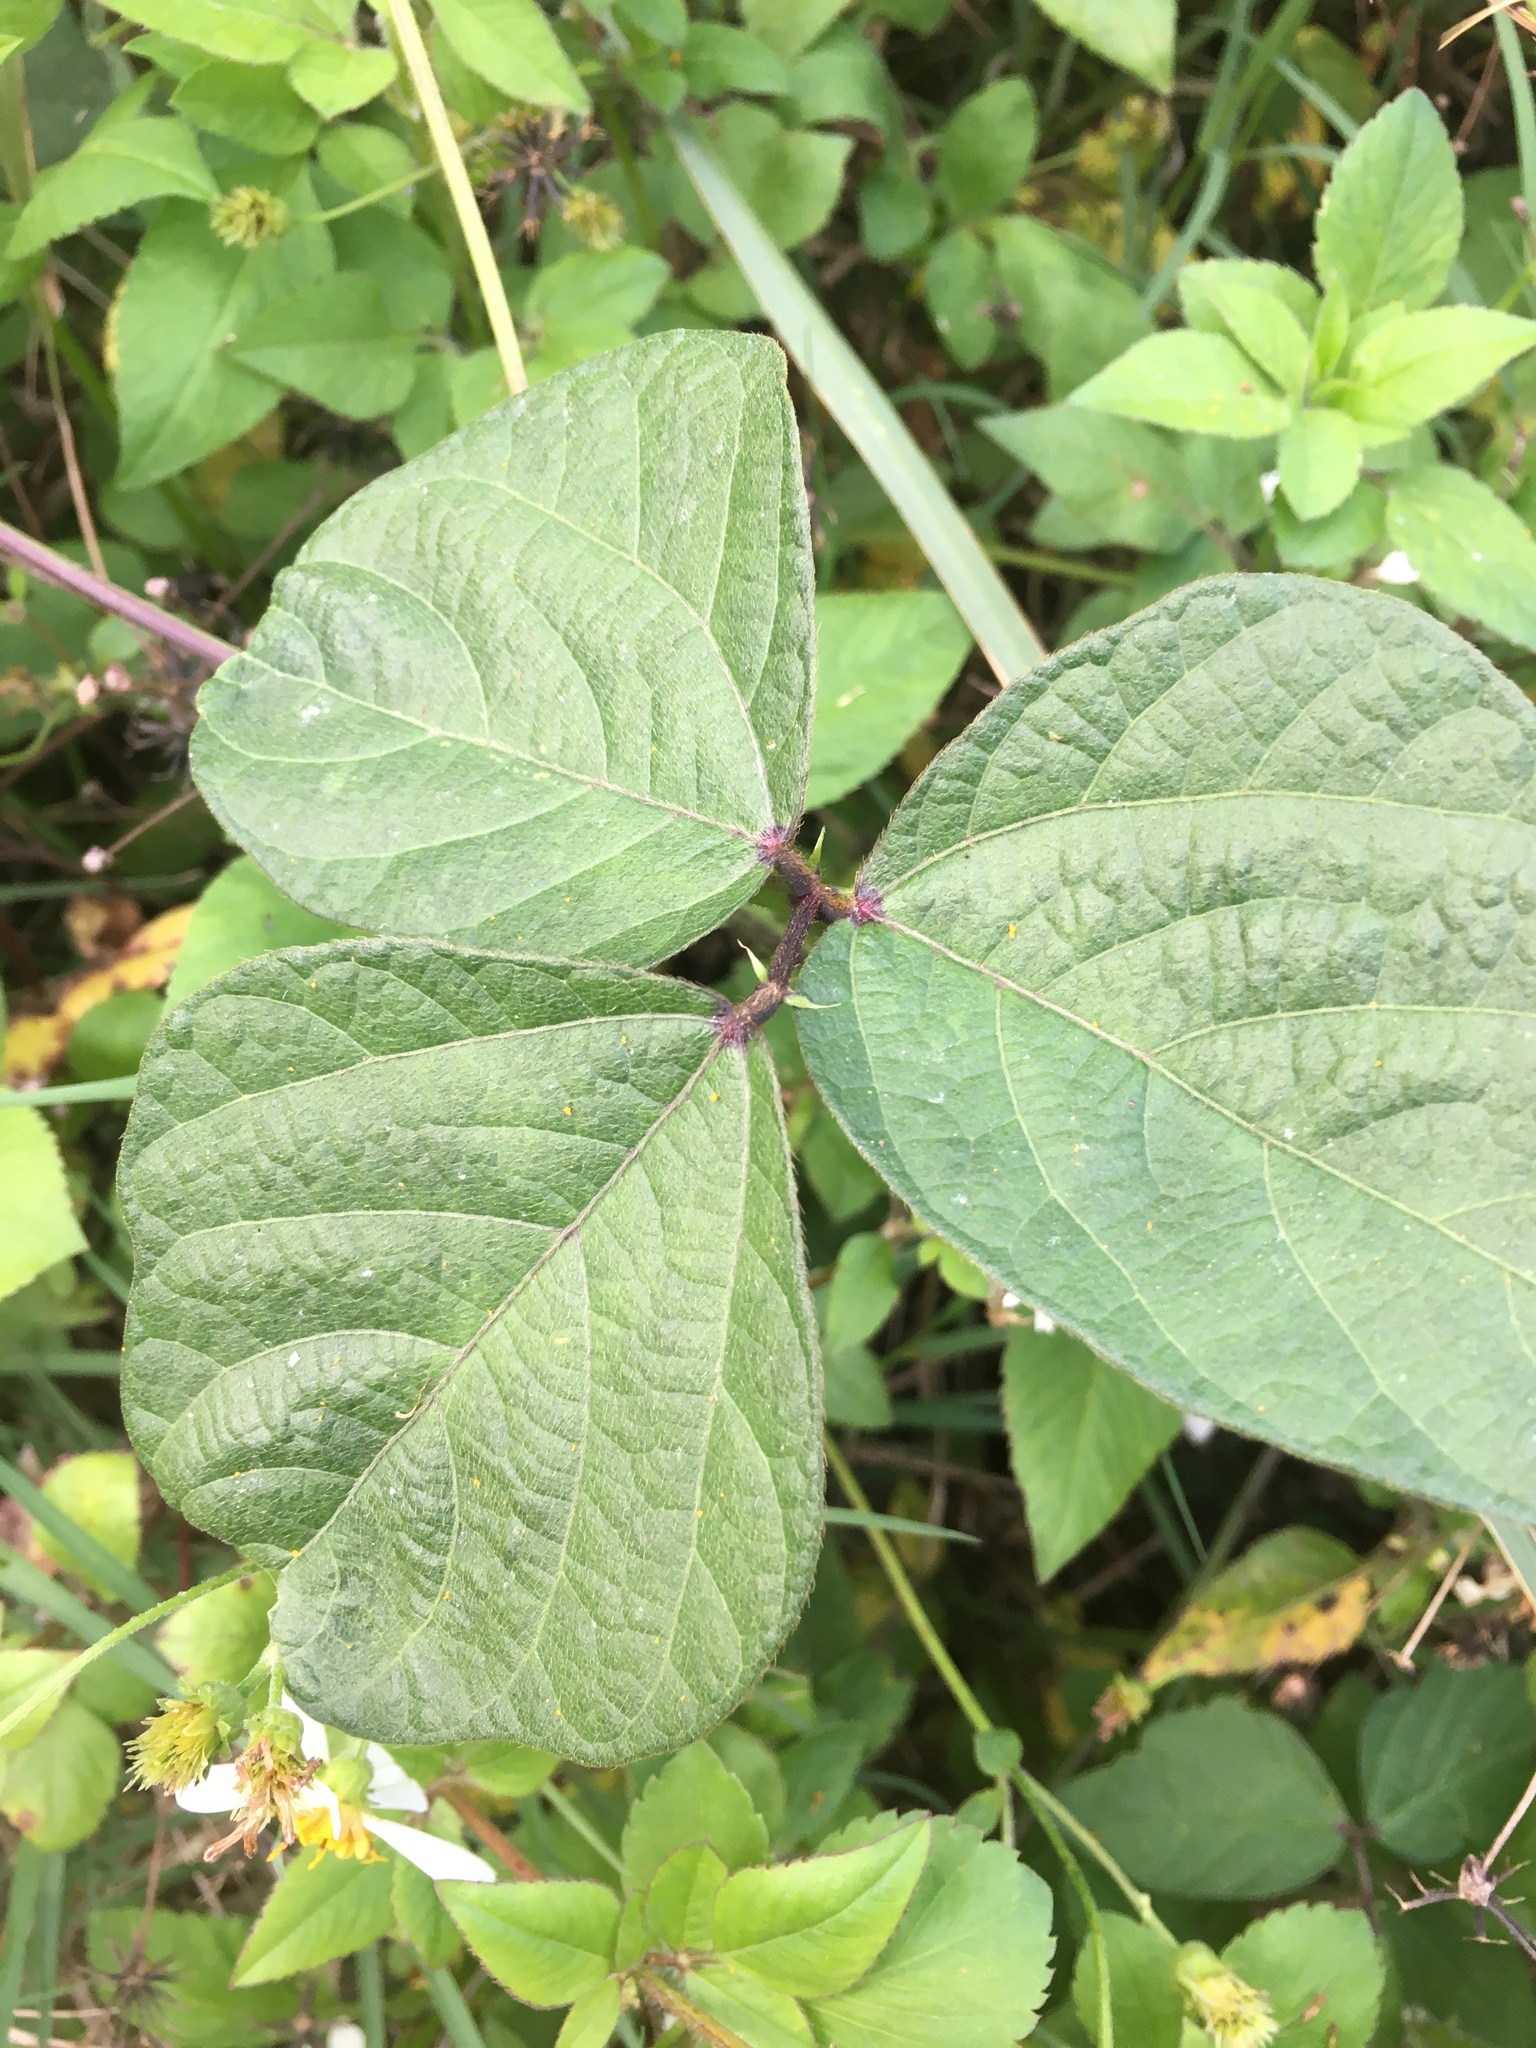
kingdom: Plantae
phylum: Tracheophyta
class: Magnoliopsida
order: Fabales
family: Fabaceae
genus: Vigna
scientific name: Vigna reflexopilosa
